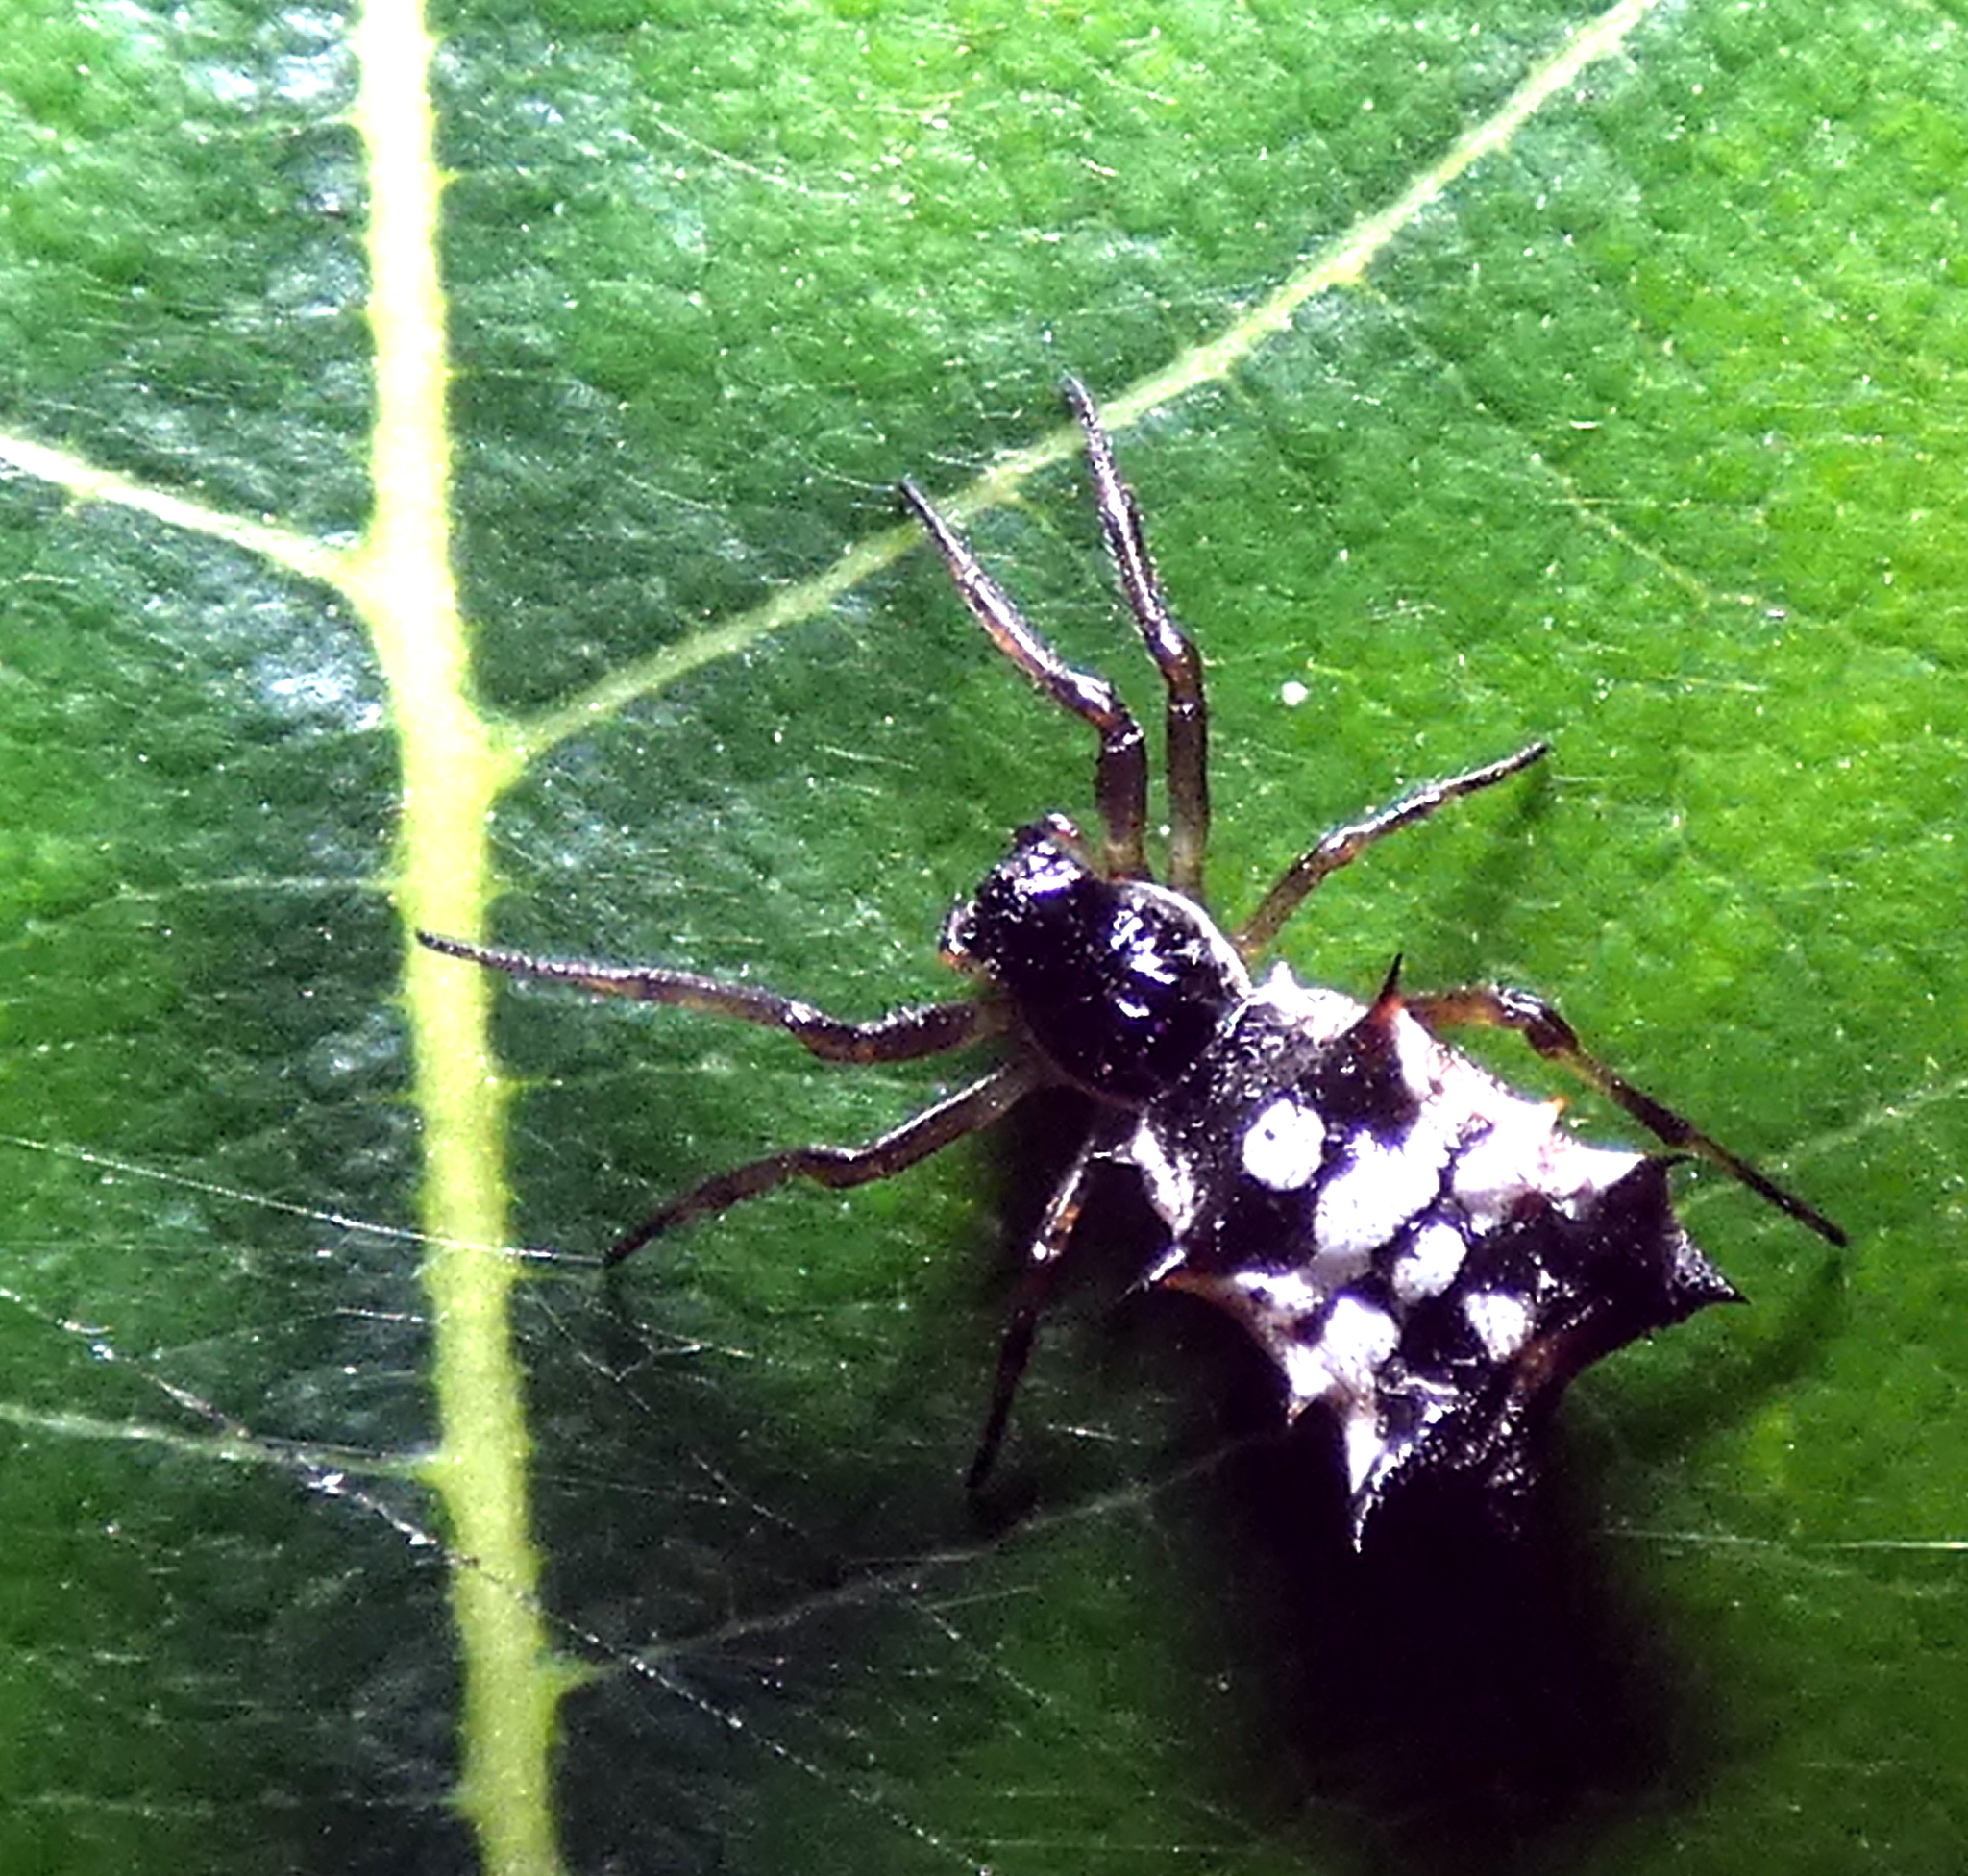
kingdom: Animalia
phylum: Arthropoda
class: Arachnida
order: Araneae
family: Araneidae
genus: Micrathena
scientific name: Micrathena picta
